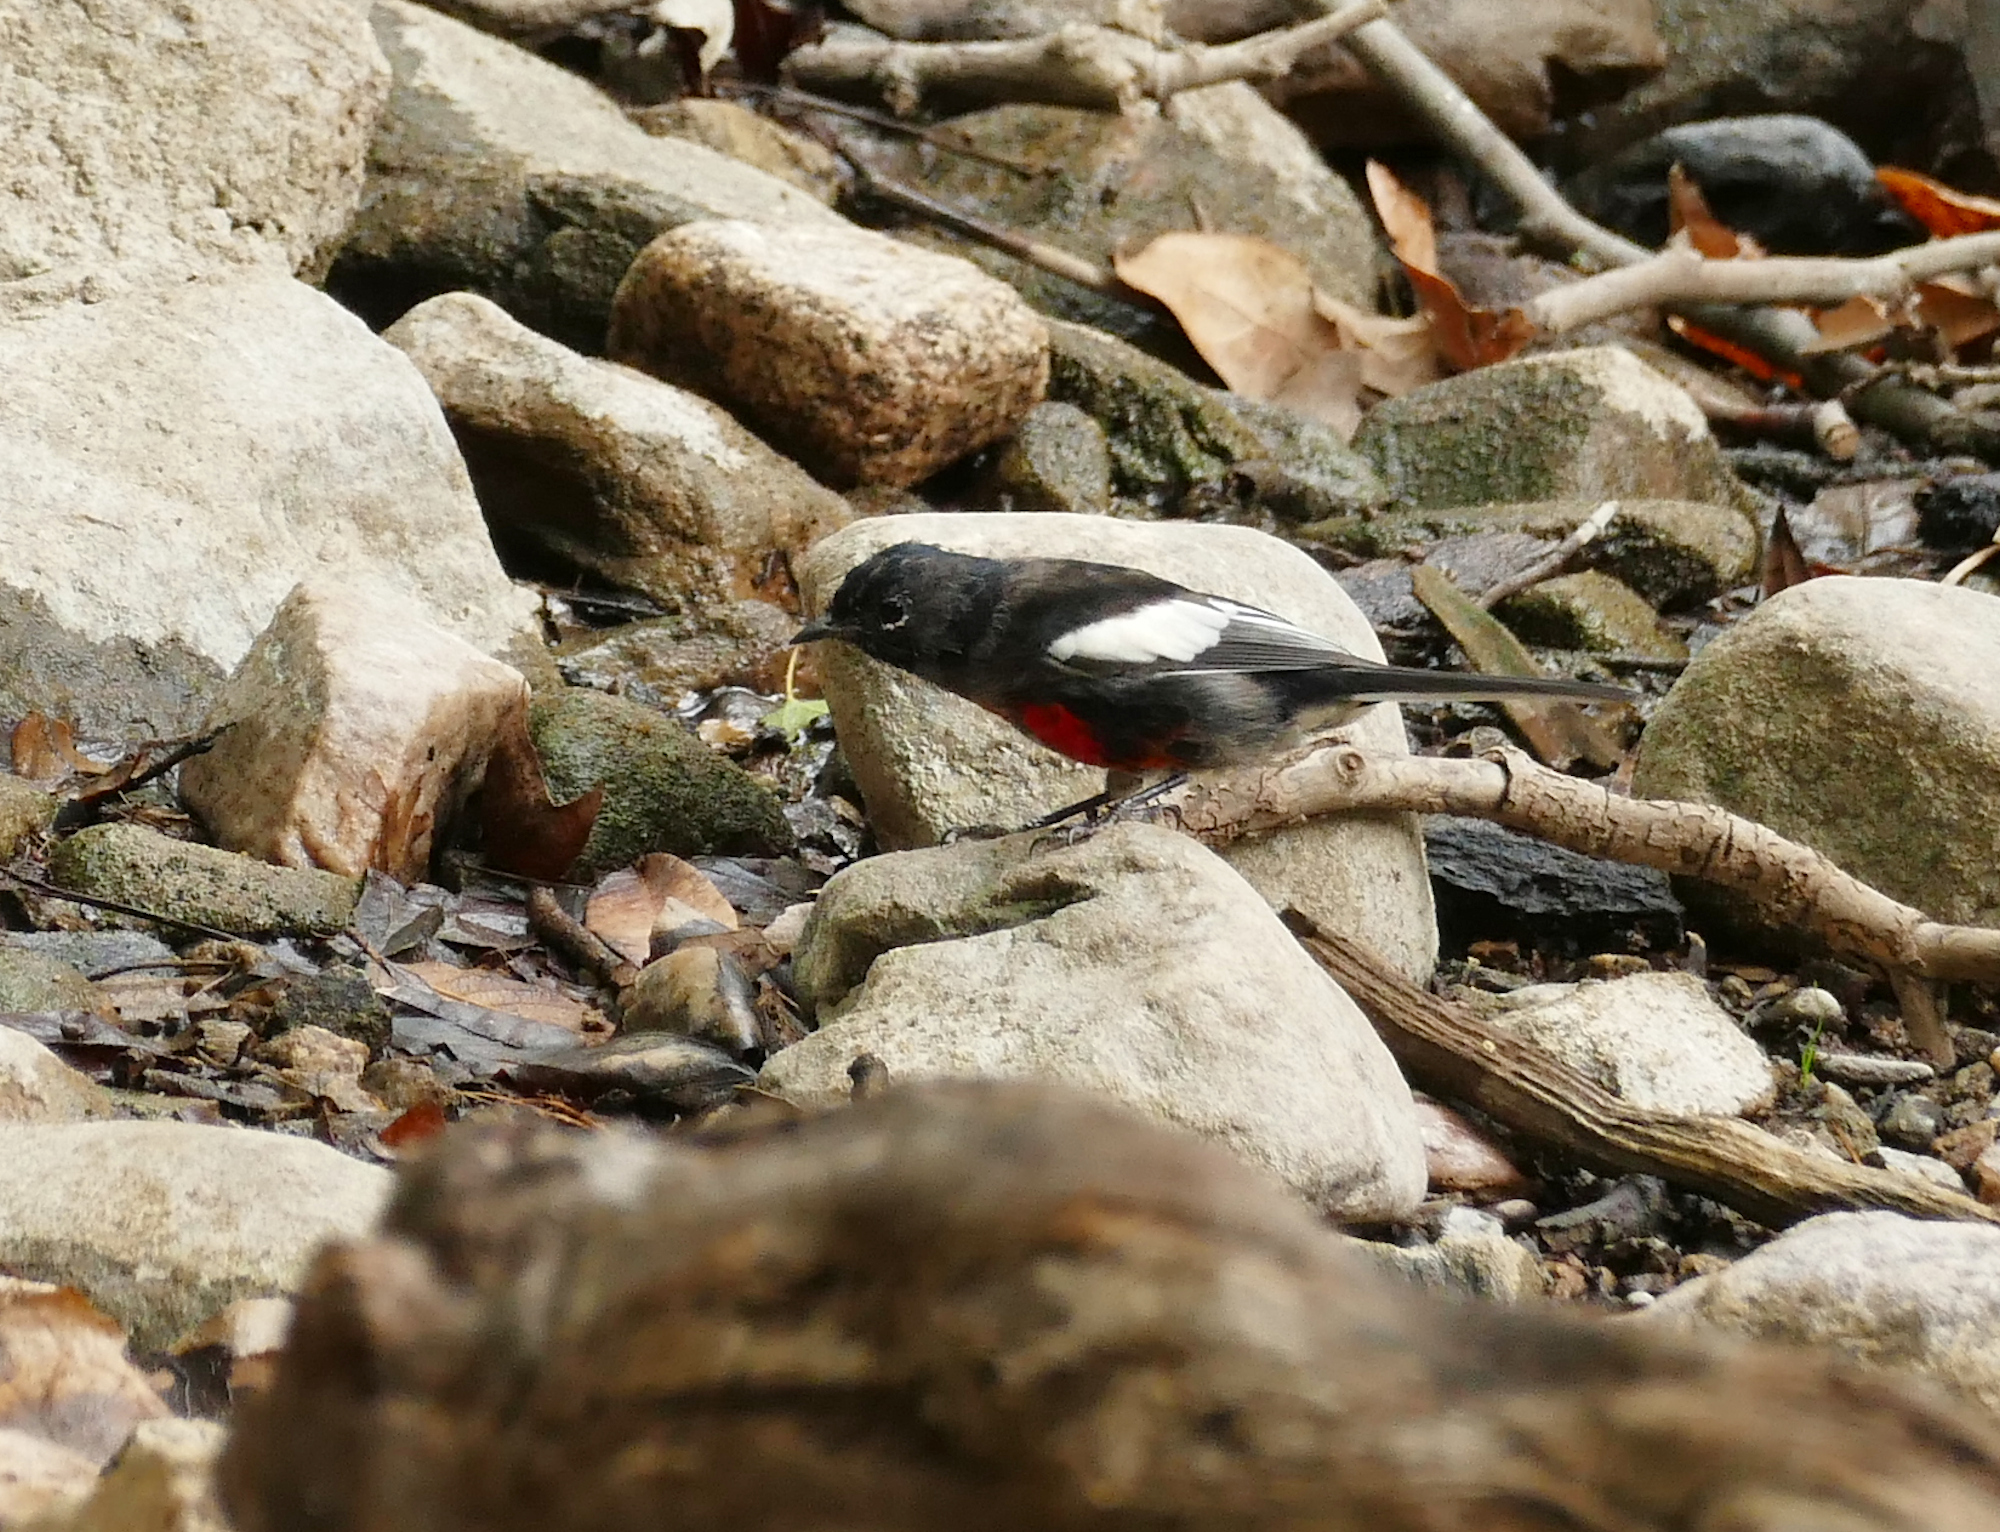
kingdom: Animalia
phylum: Chordata
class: Aves
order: Passeriformes
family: Parulidae
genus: Myioborus
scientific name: Myioborus pictus
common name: Painted whitestart
